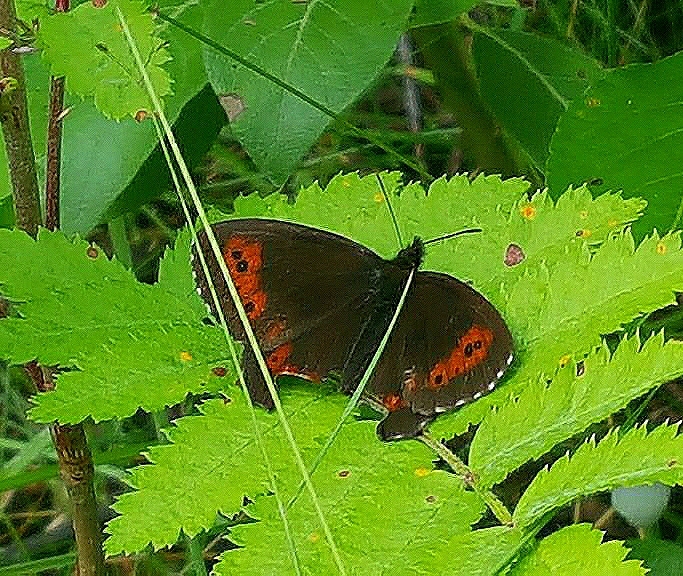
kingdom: Animalia
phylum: Arthropoda
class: Insecta
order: Lepidoptera
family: Nymphalidae
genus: Erebia
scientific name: Erebia ligea
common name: Arran brown
